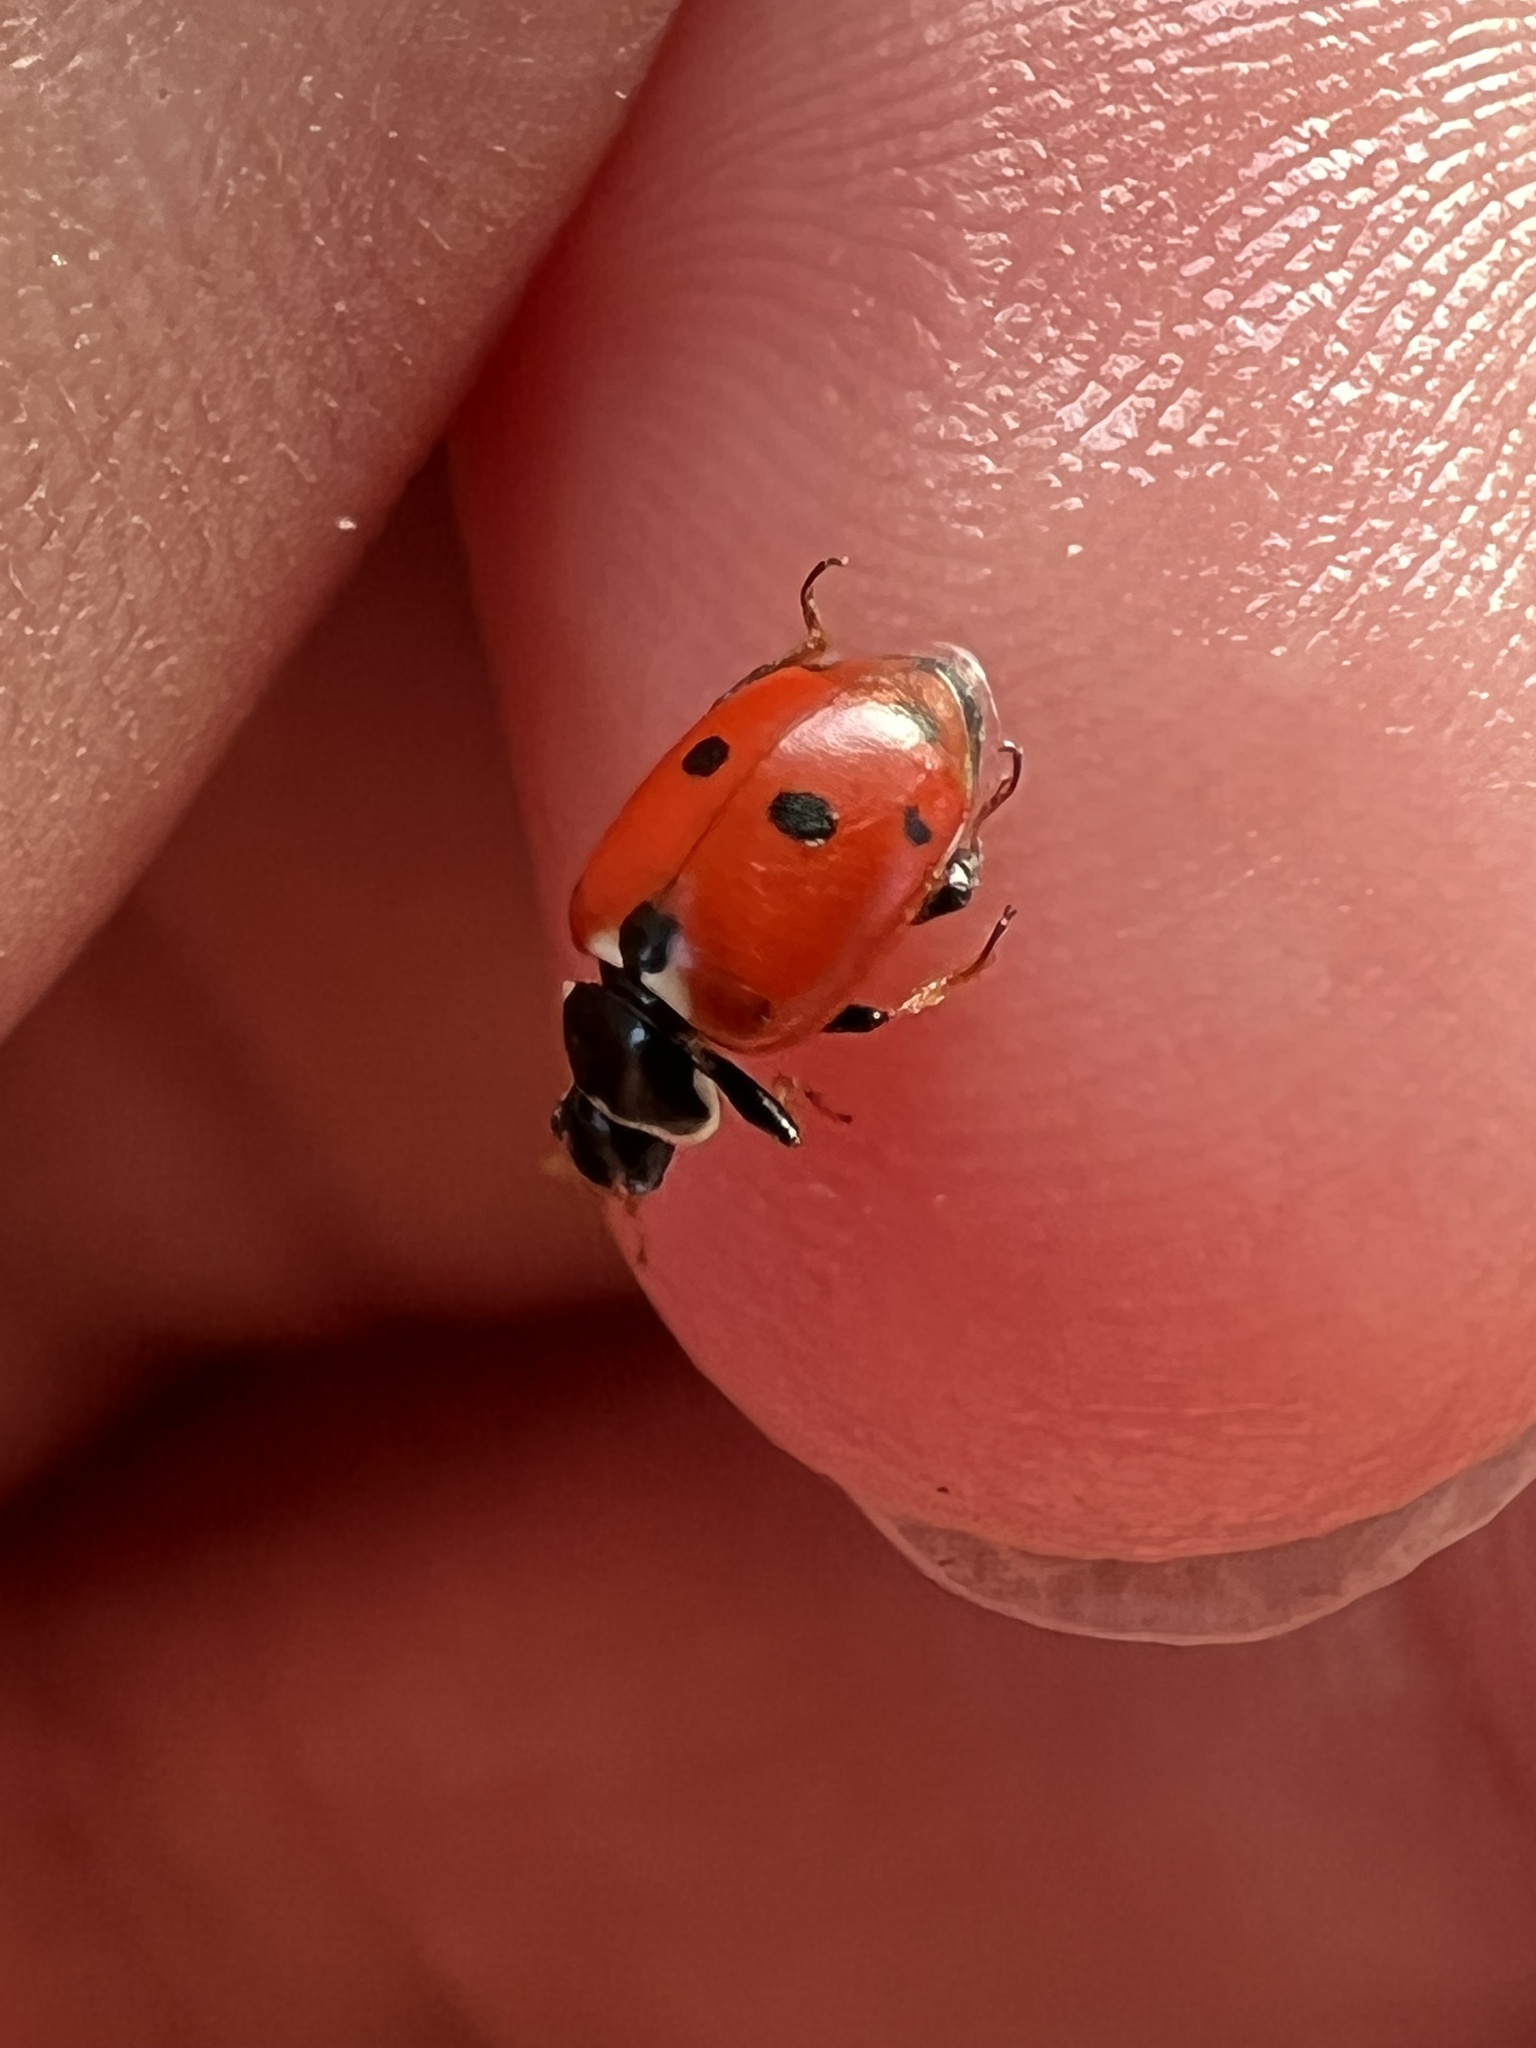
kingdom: Animalia
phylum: Arthropoda
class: Insecta
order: Coleoptera
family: Coccinellidae
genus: Hippodamia
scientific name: Hippodamia variegata
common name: Ladybird beetle
